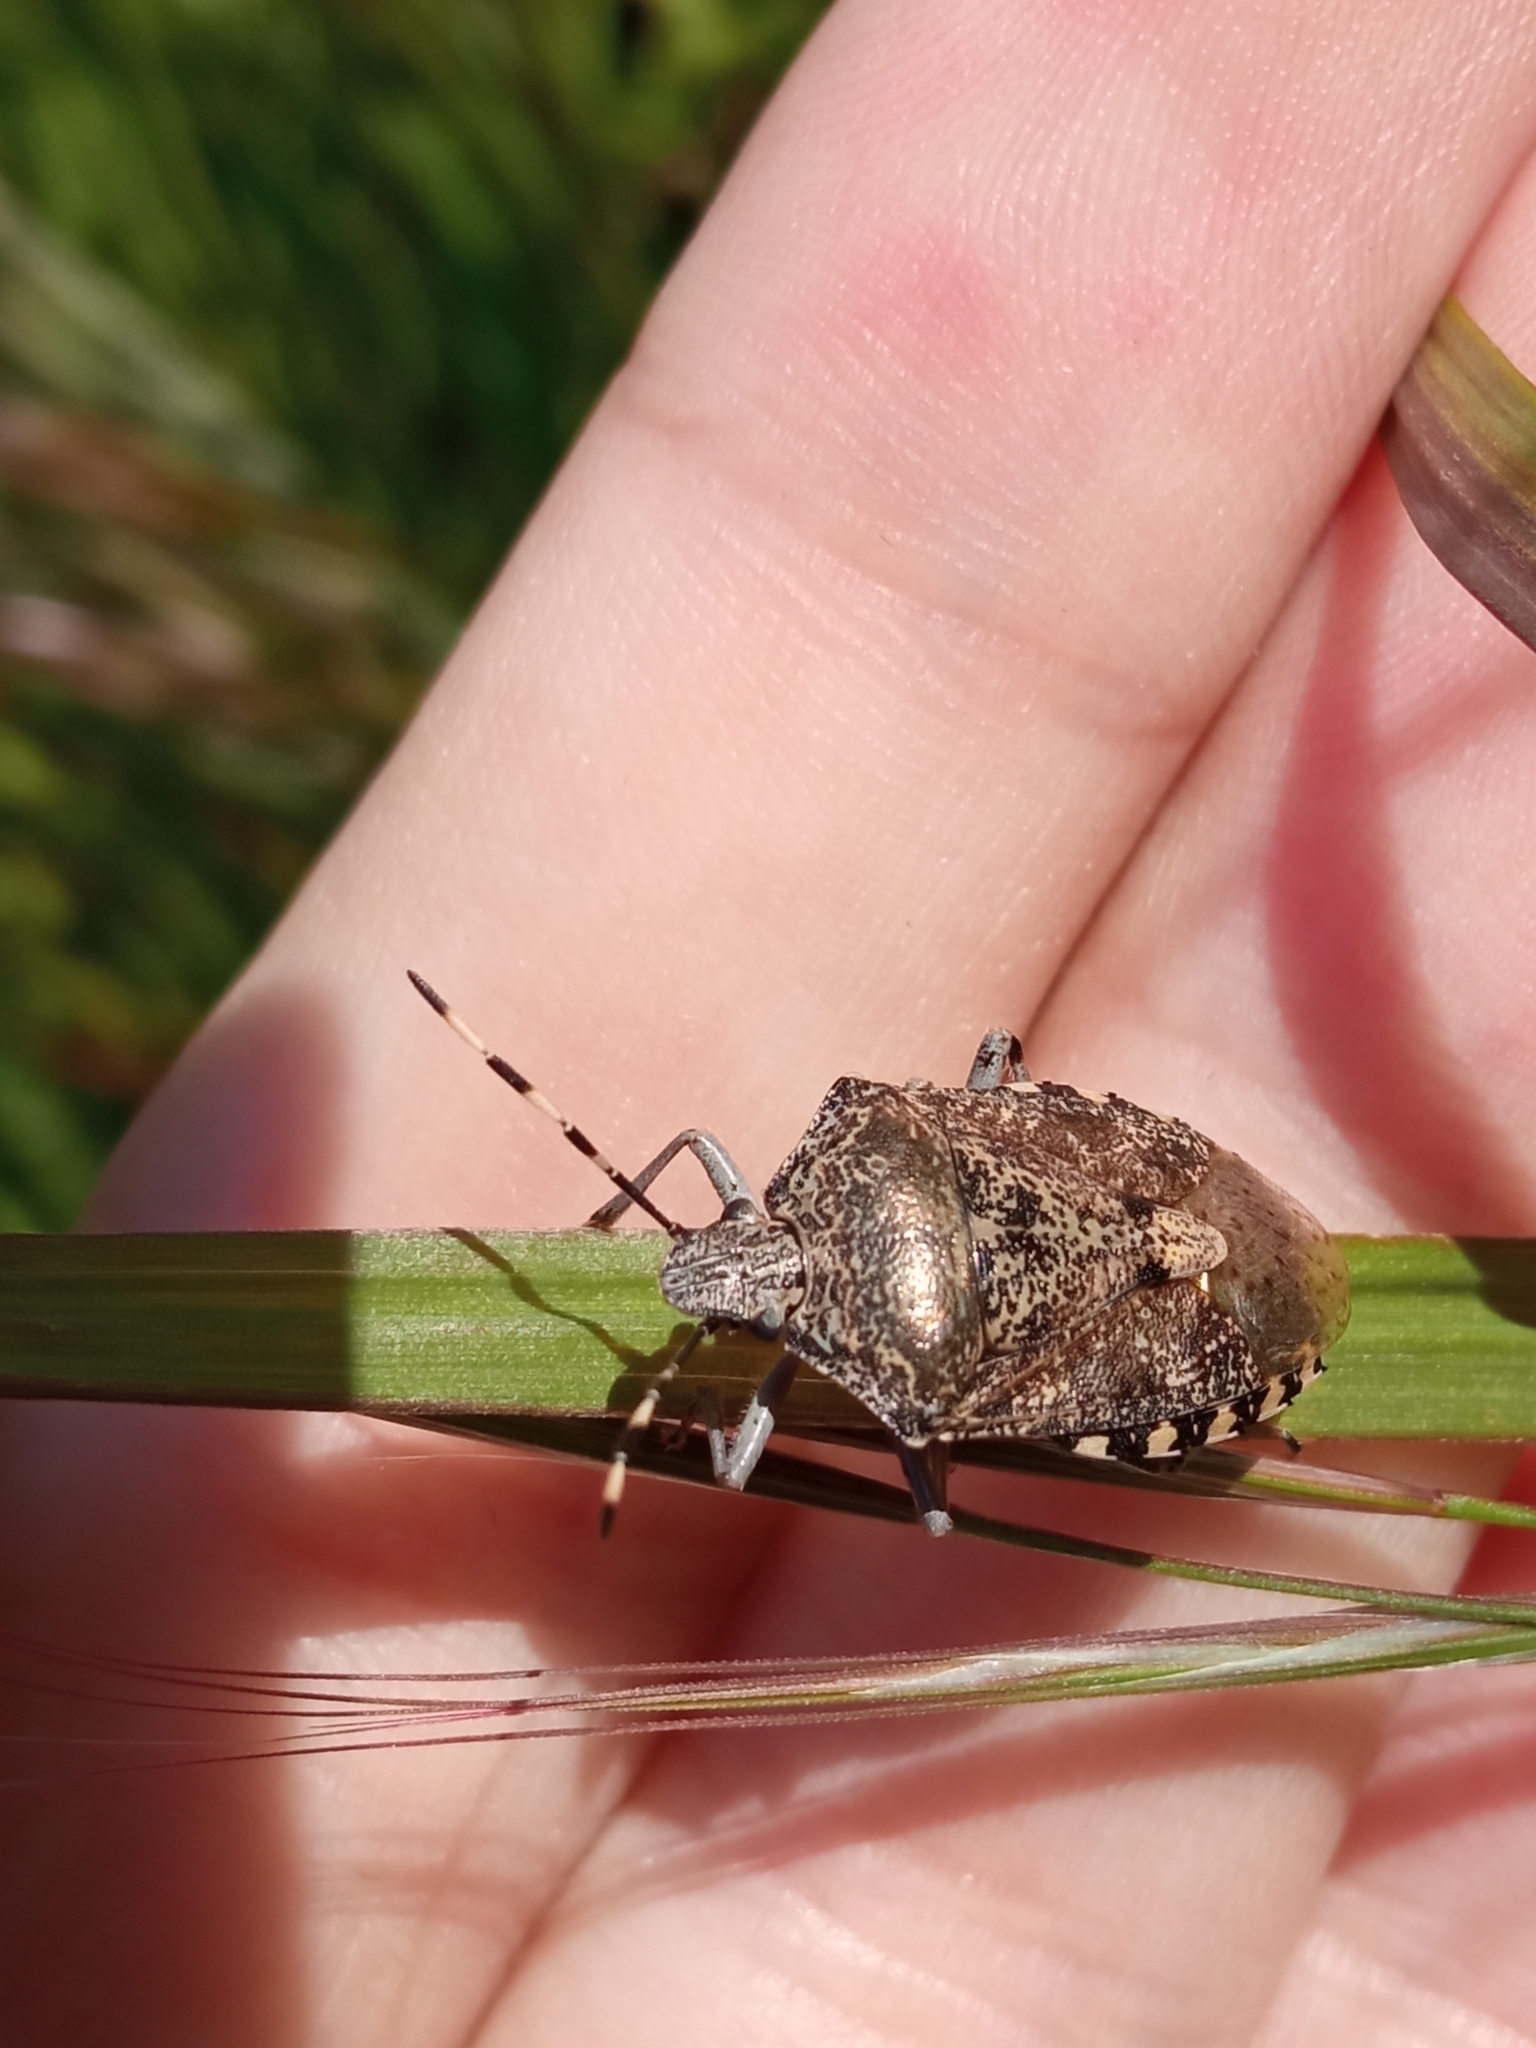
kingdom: Animalia
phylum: Arthropoda
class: Insecta
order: Hemiptera
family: Pentatomidae
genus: Rhaphigaster
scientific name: Rhaphigaster nebulosa
